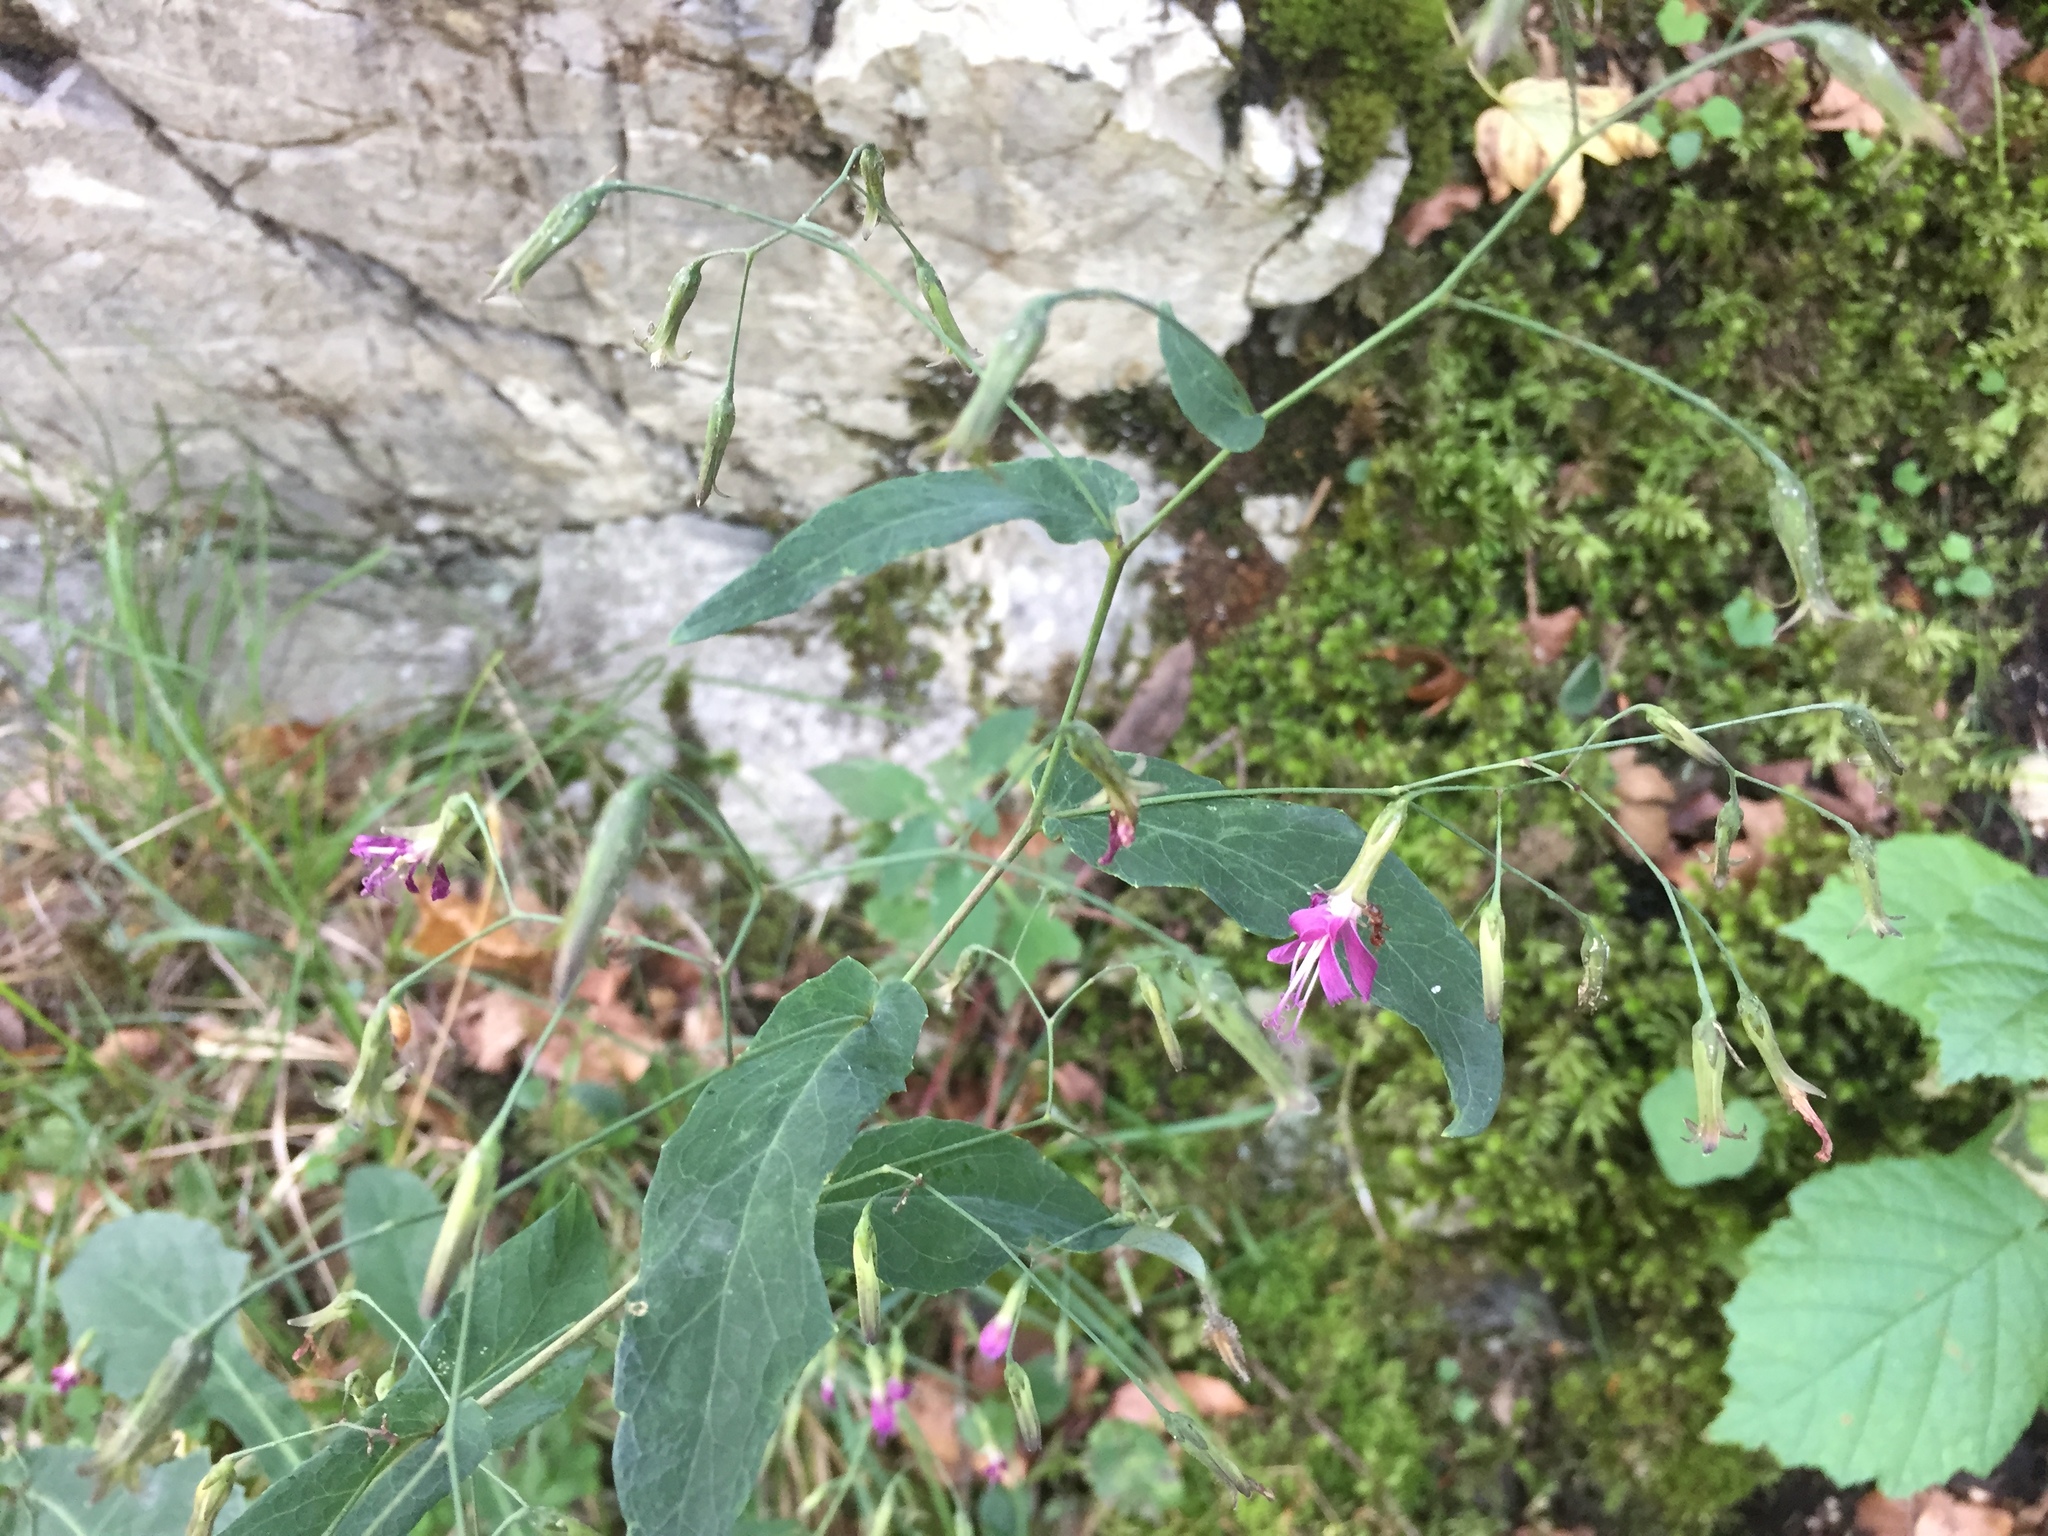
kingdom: Plantae
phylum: Tracheophyta
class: Magnoliopsida
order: Asterales
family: Asteraceae
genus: Prenanthes
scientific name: Prenanthes purpurea
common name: Purple lettuce
